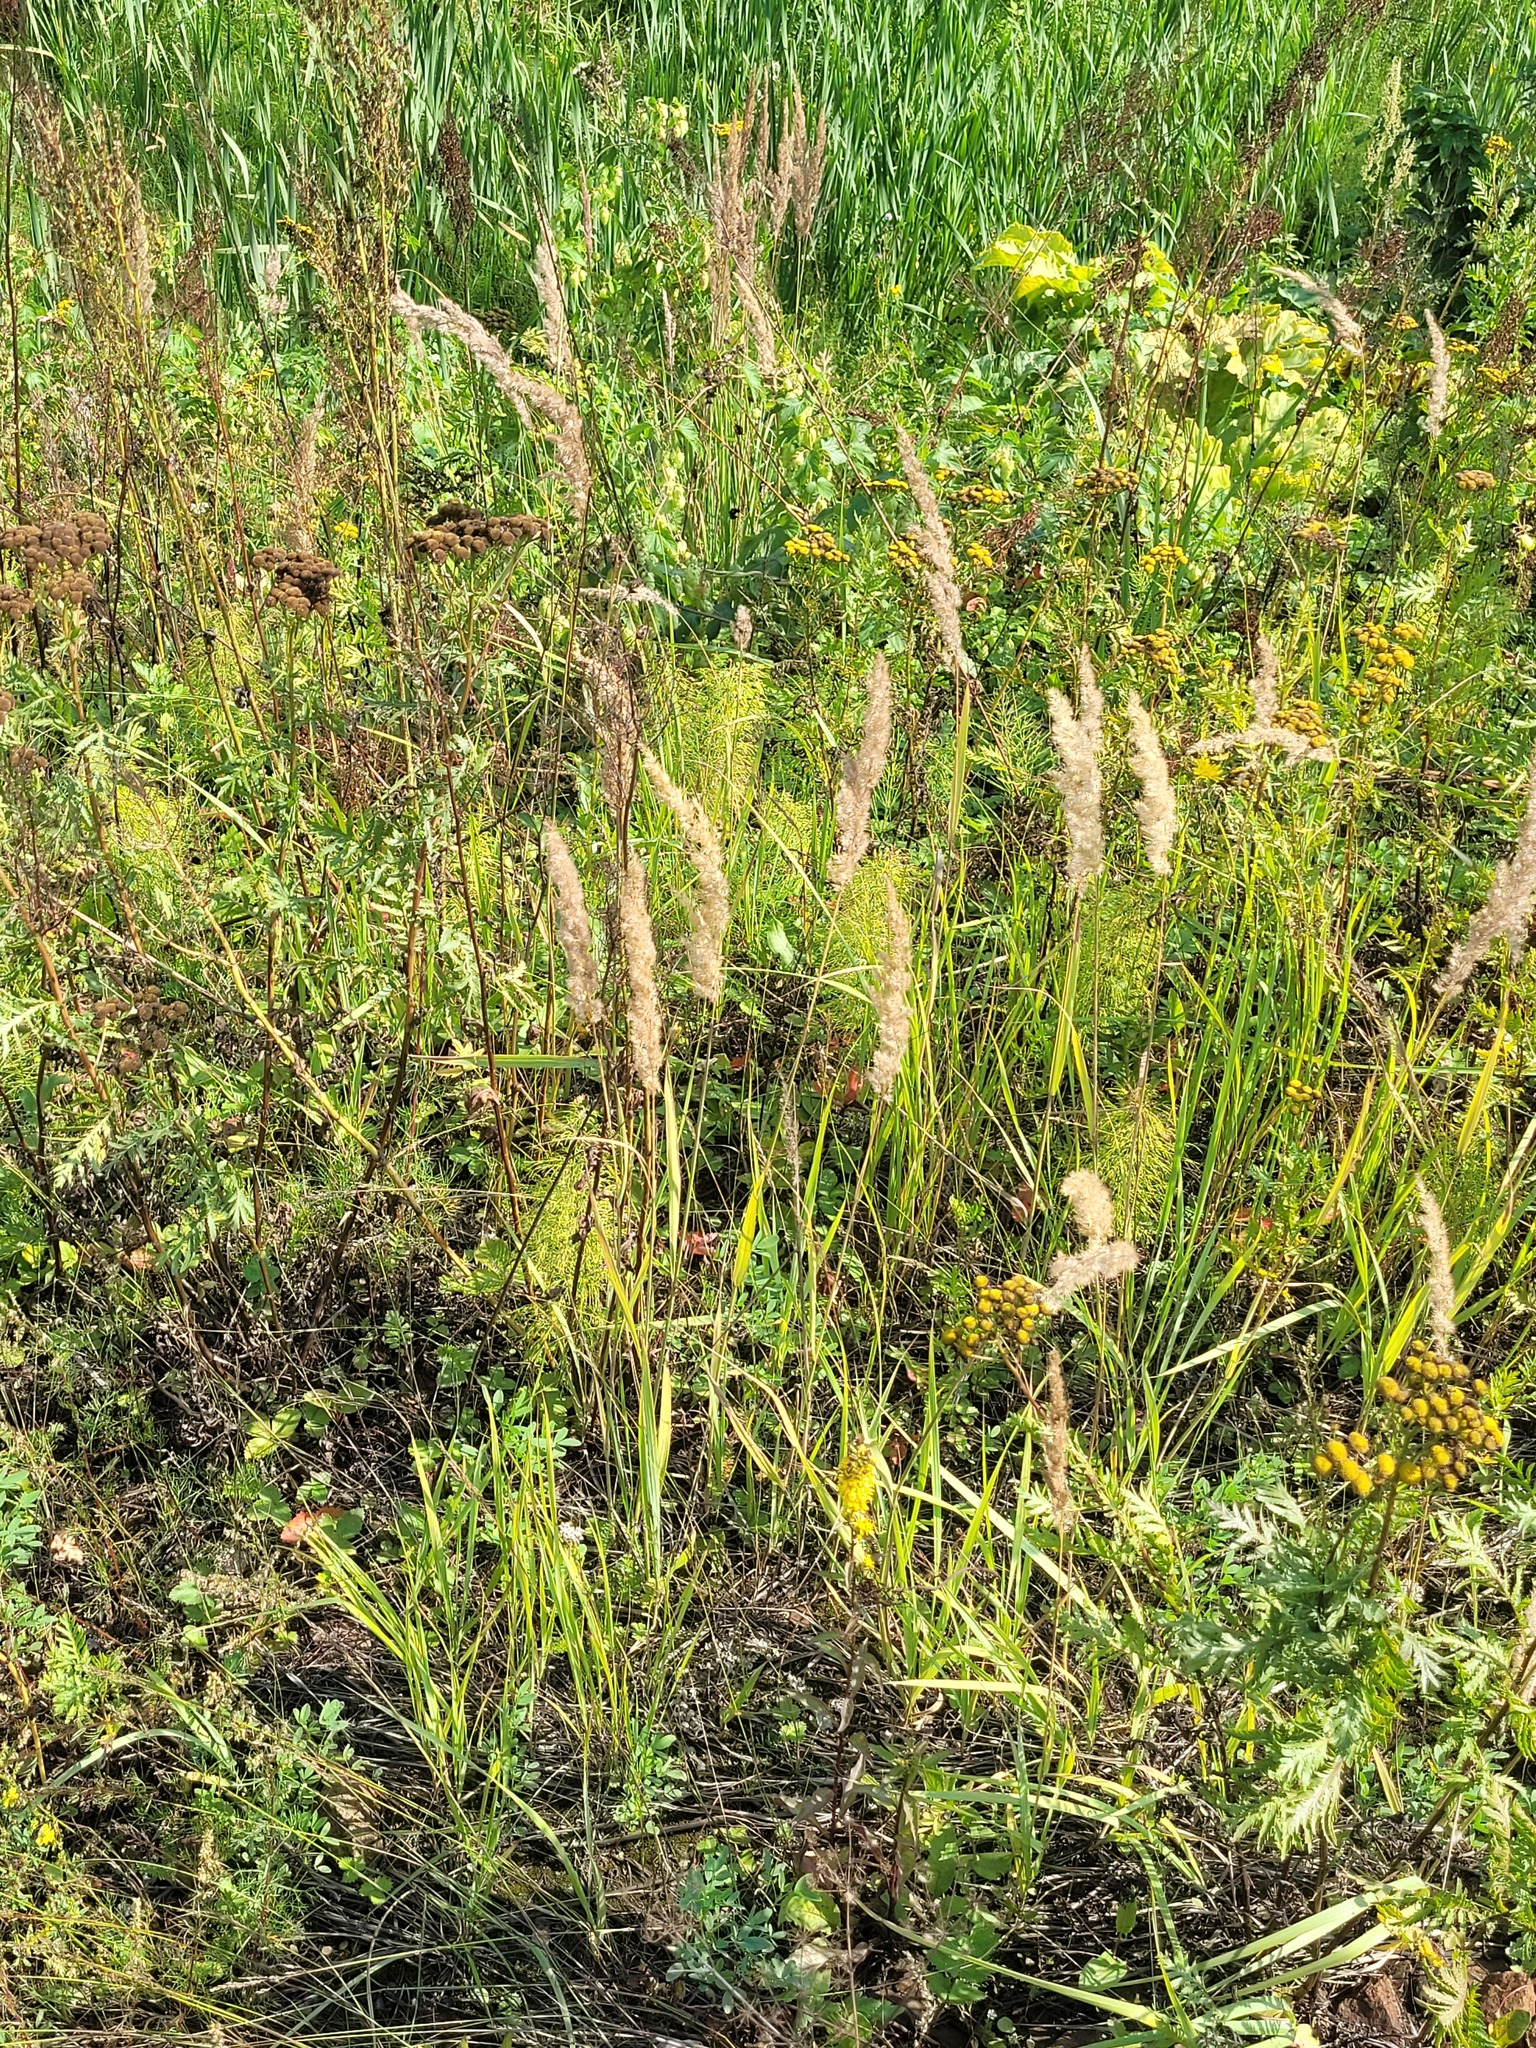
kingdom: Plantae
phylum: Tracheophyta
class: Liliopsida
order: Poales
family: Poaceae
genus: Calamagrostis
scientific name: Calamagrostis epigejos
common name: Wood small-reed
